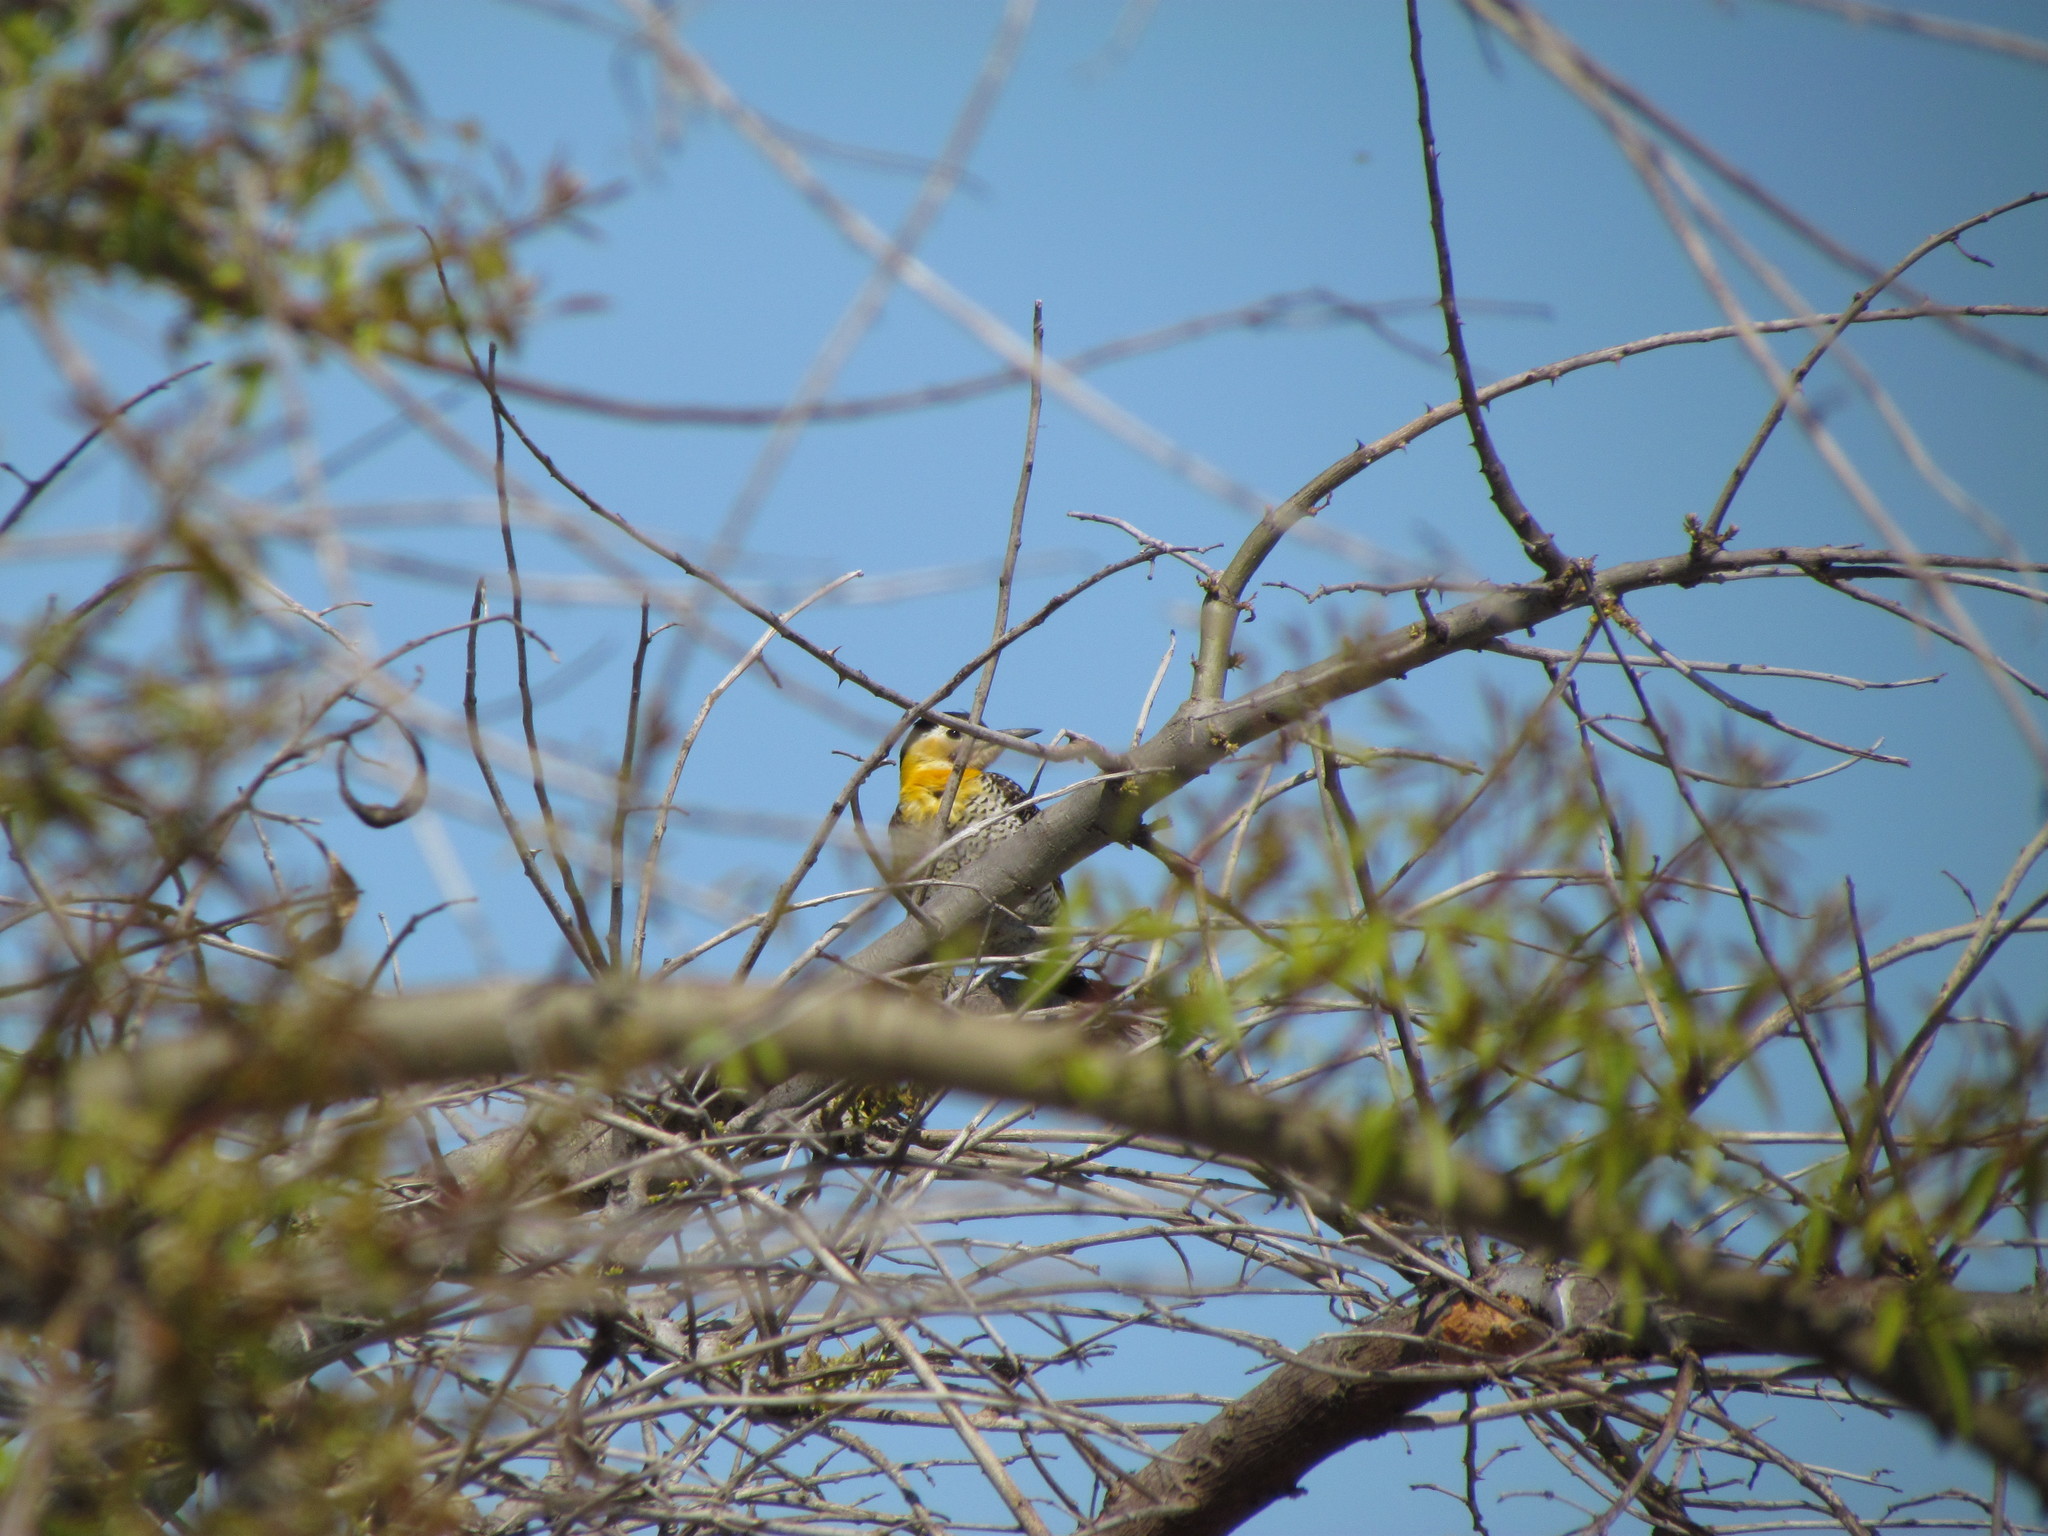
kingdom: Animalia
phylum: Chordata
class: Aves
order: Piciformes
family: Picidae
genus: Colaptes
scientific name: Colaptes campestris
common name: Campo flicker
